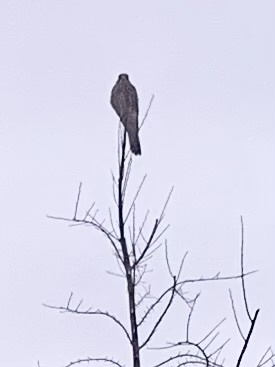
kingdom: Animalia
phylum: Chordata
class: Aves
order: Falconiformes
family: Falconidae
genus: Falco
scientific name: Falco tinnunculus
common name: Common kestrel
